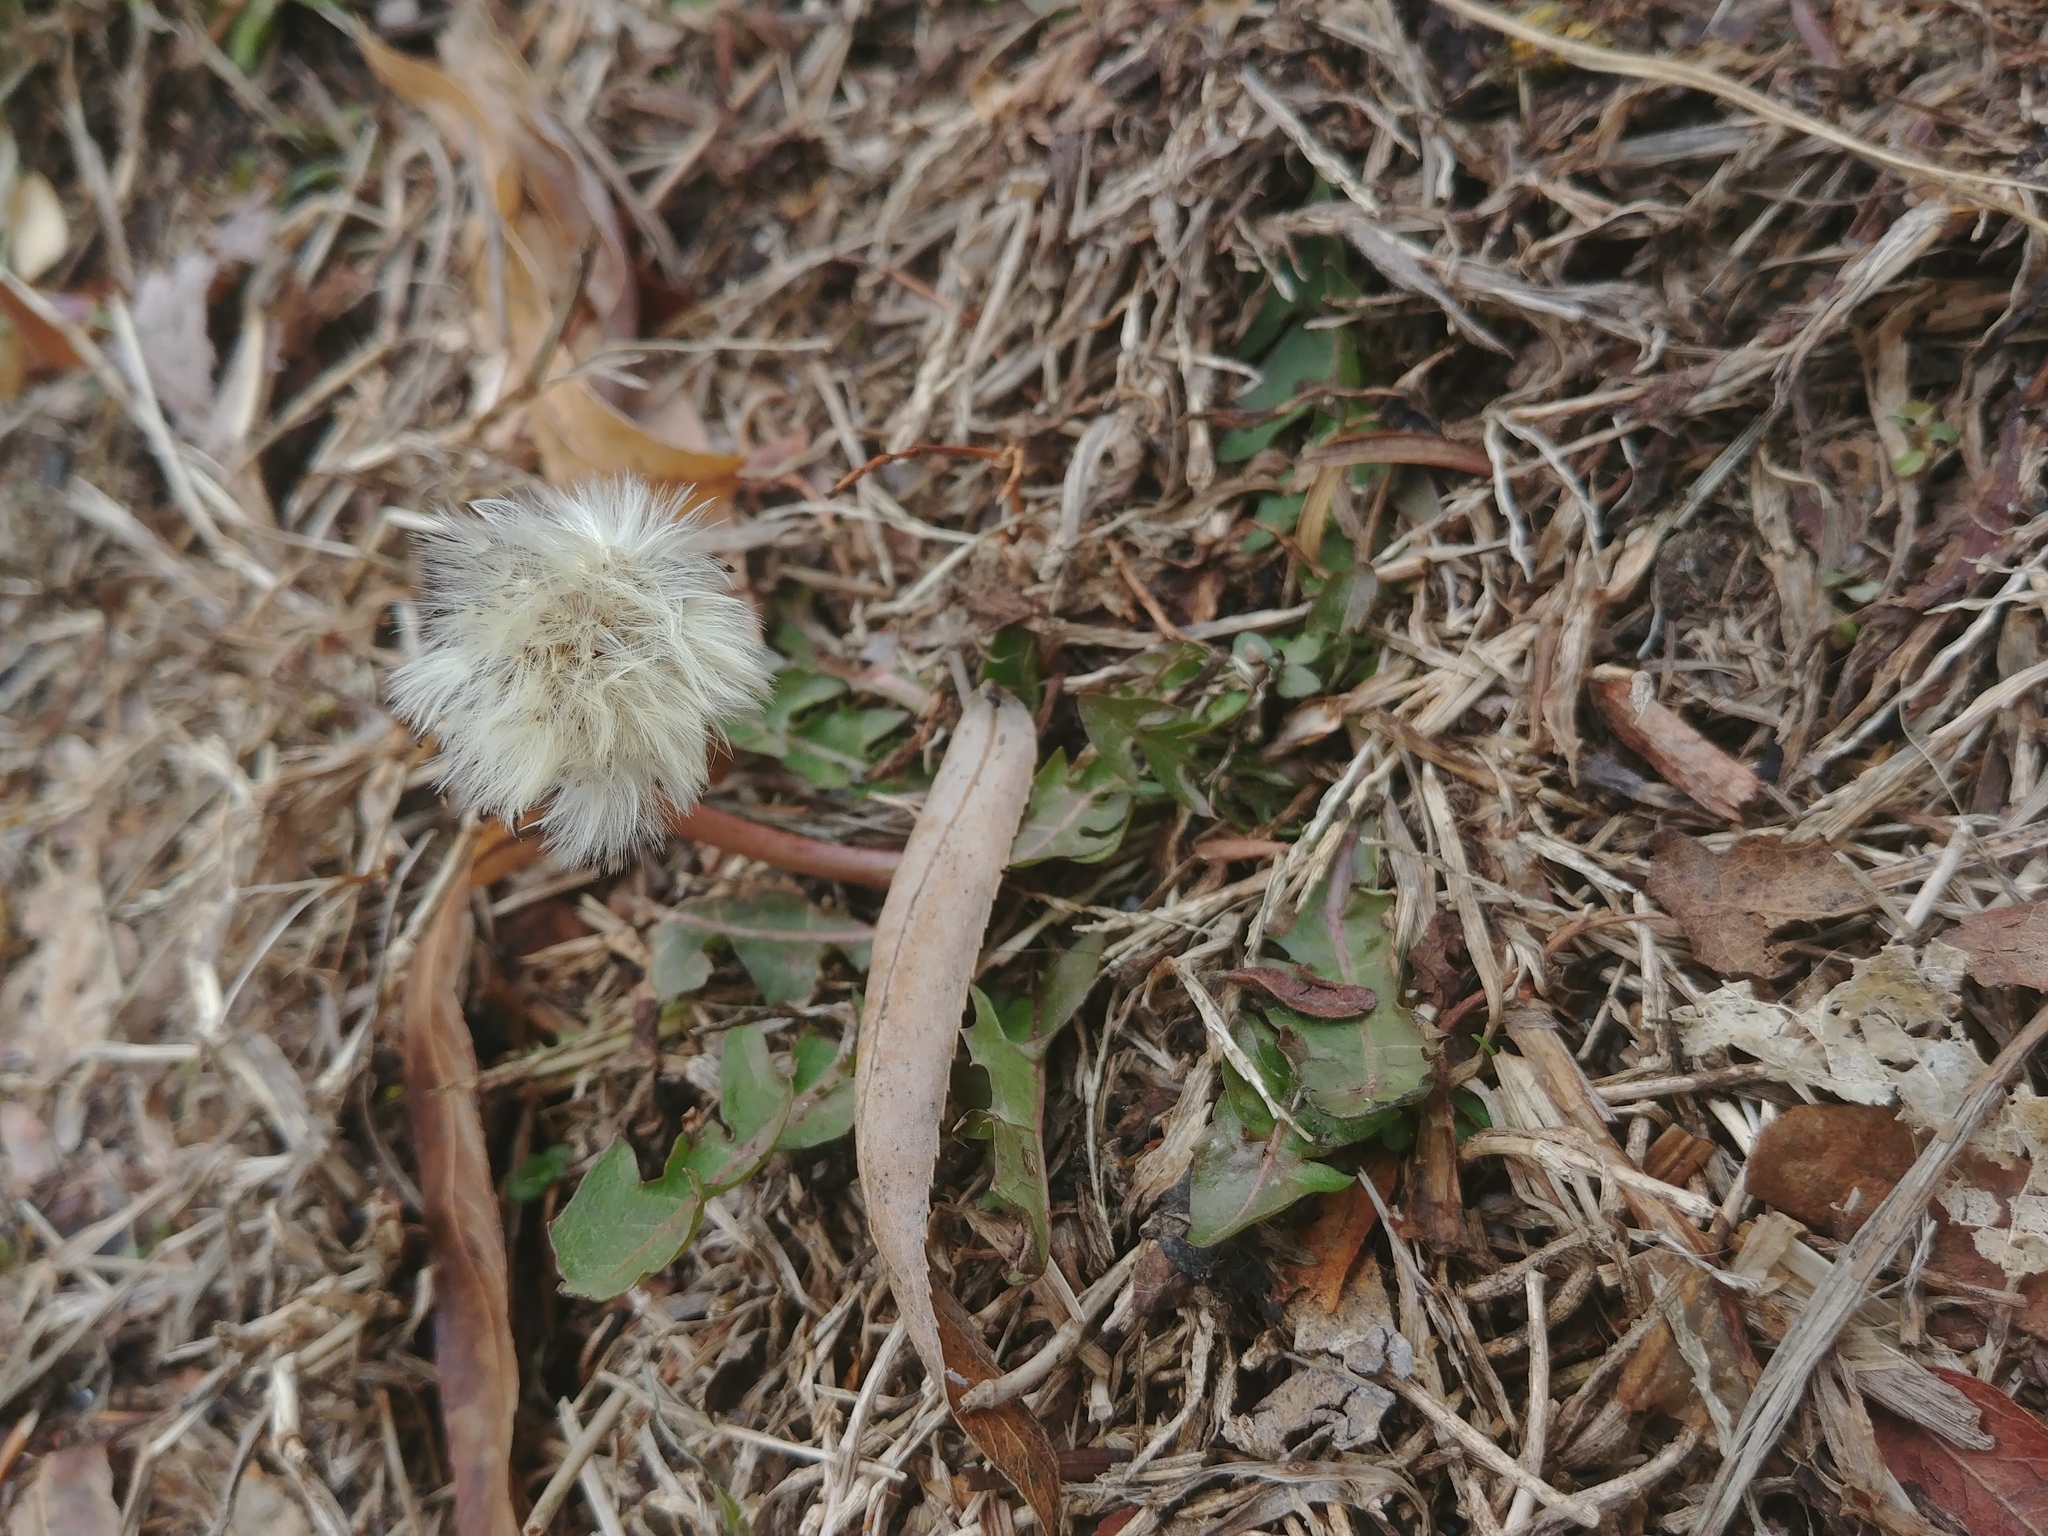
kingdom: Plantae
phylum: Tracheophyta
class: Magnoliopsida
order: Asterales
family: Asteraceae
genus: Taraxacum
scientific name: Taraxacum officinale
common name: Common dandelion
